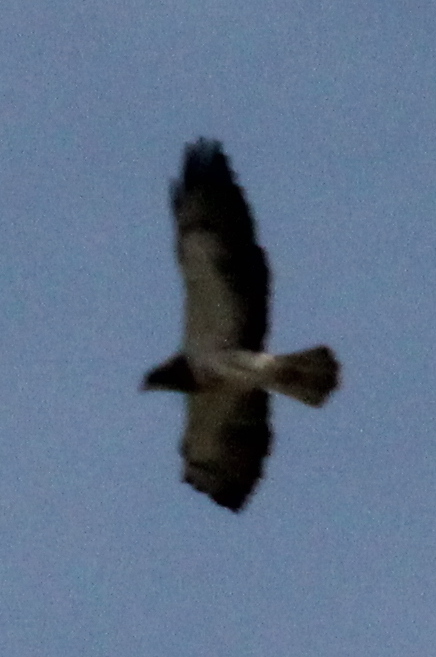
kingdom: Animalia
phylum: Chordata
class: Aves
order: Accipitriformes
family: Accipitridae
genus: Buteo
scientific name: Buteo swainsoni
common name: Swainson's hawk
